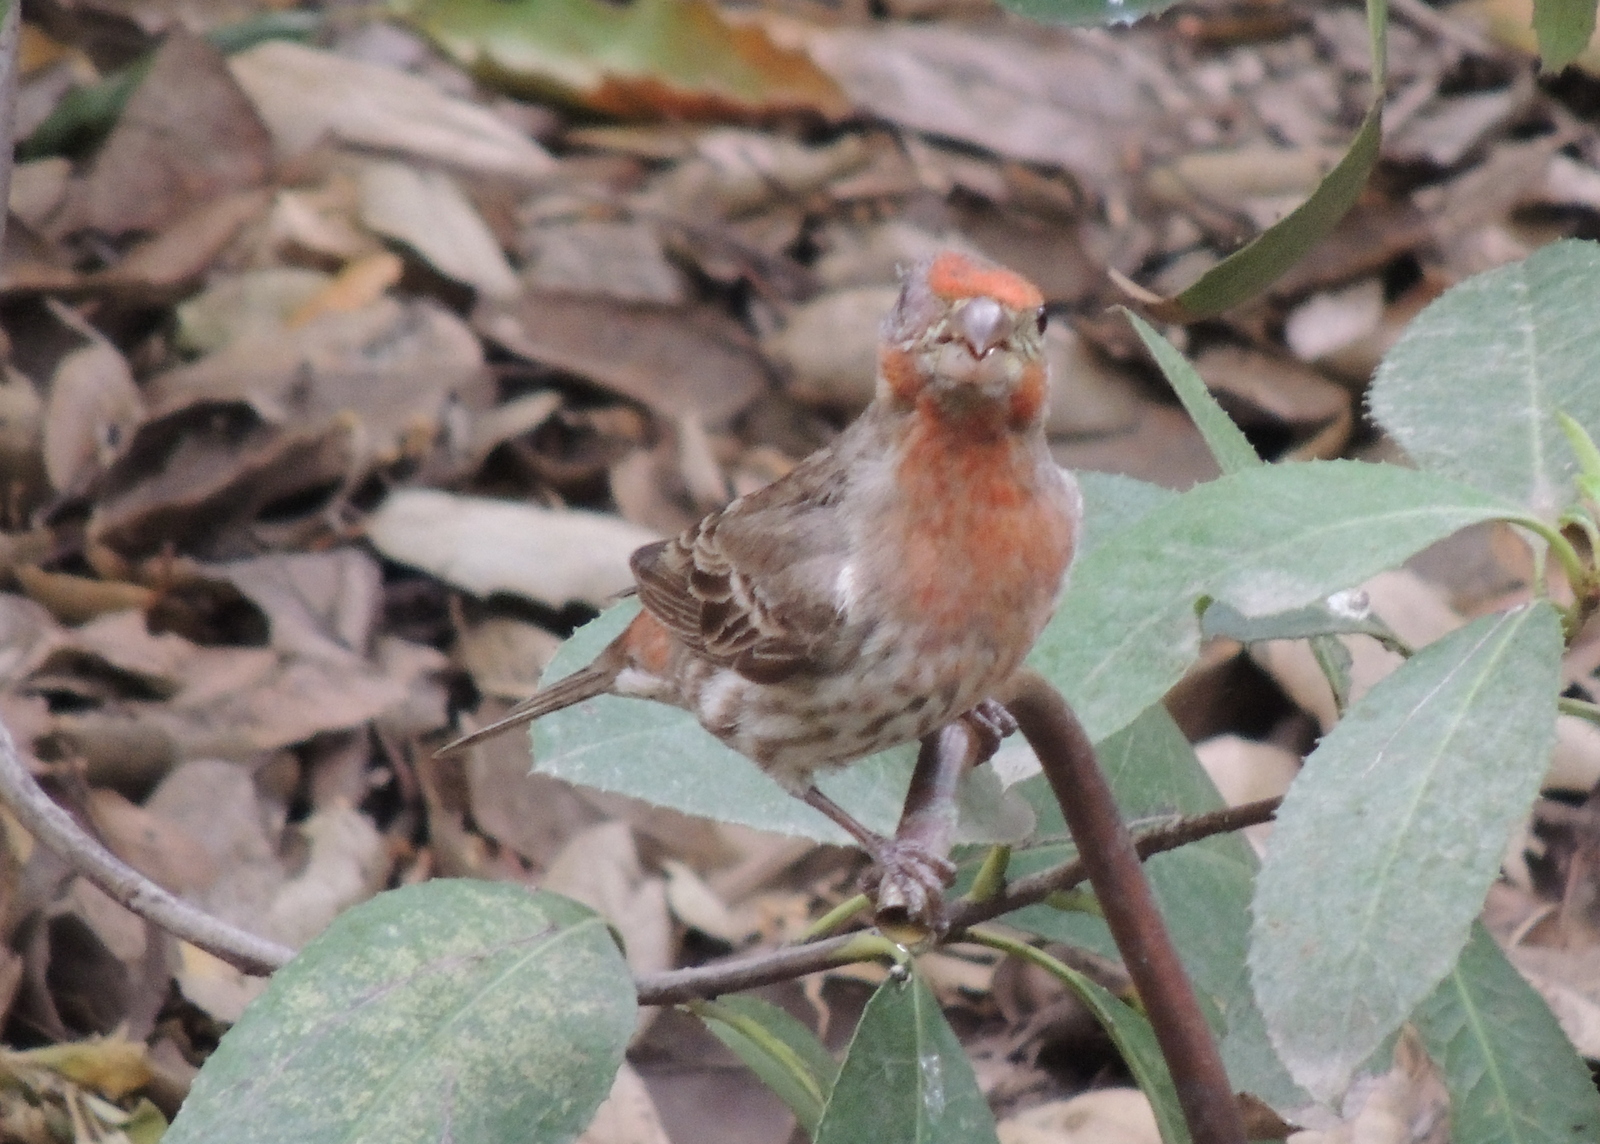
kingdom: Animalia
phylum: Chordata
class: Aves
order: Passeriformes
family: Fringillidae
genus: Haemorhous
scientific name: Haemorhous mexicanus
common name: House finch
